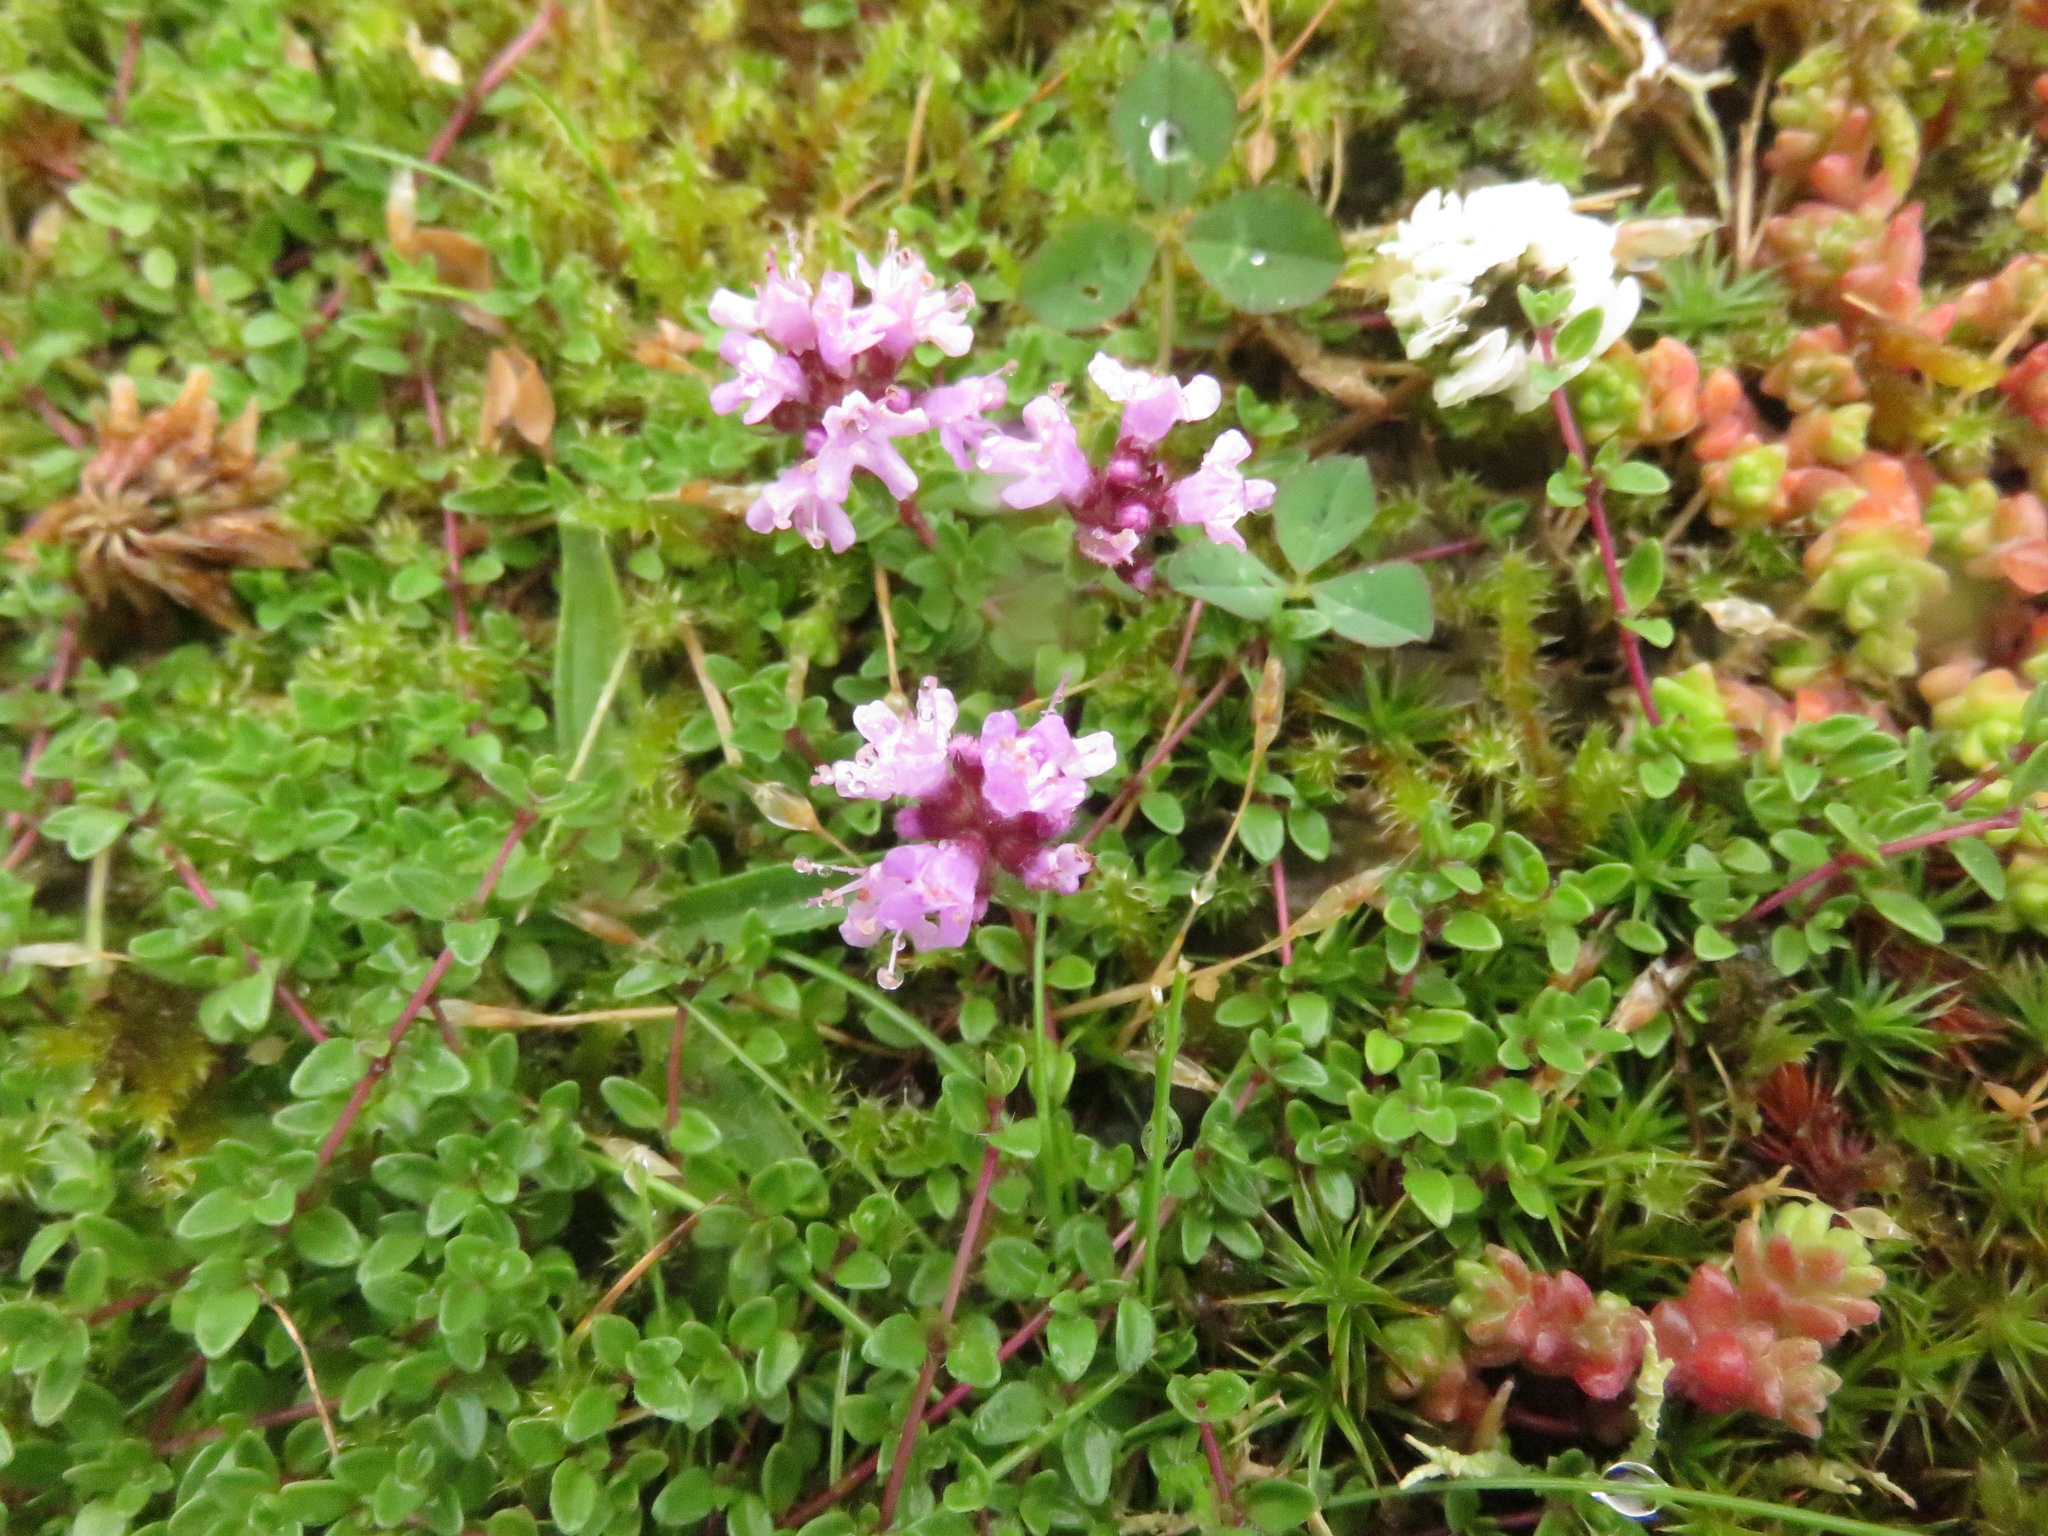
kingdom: Plantae
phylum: Tracheophyta
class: Magnoliopsida
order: Lamiales
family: Lamiaceae
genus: Thymus
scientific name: Thymus praecox
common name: Wild thyme
